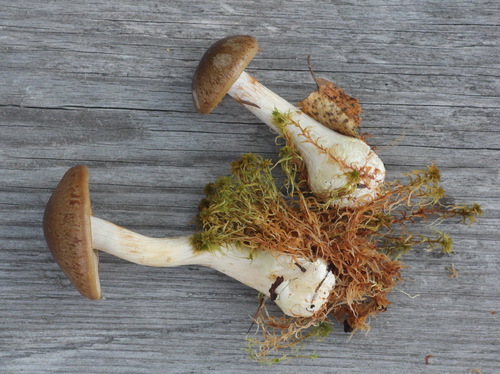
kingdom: Fungi
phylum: Basidiomycota
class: Agaricomycetes
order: Agaricales
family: Cortinariaceae
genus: Thaxterogaster
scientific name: Thaxterogaster scaurus
